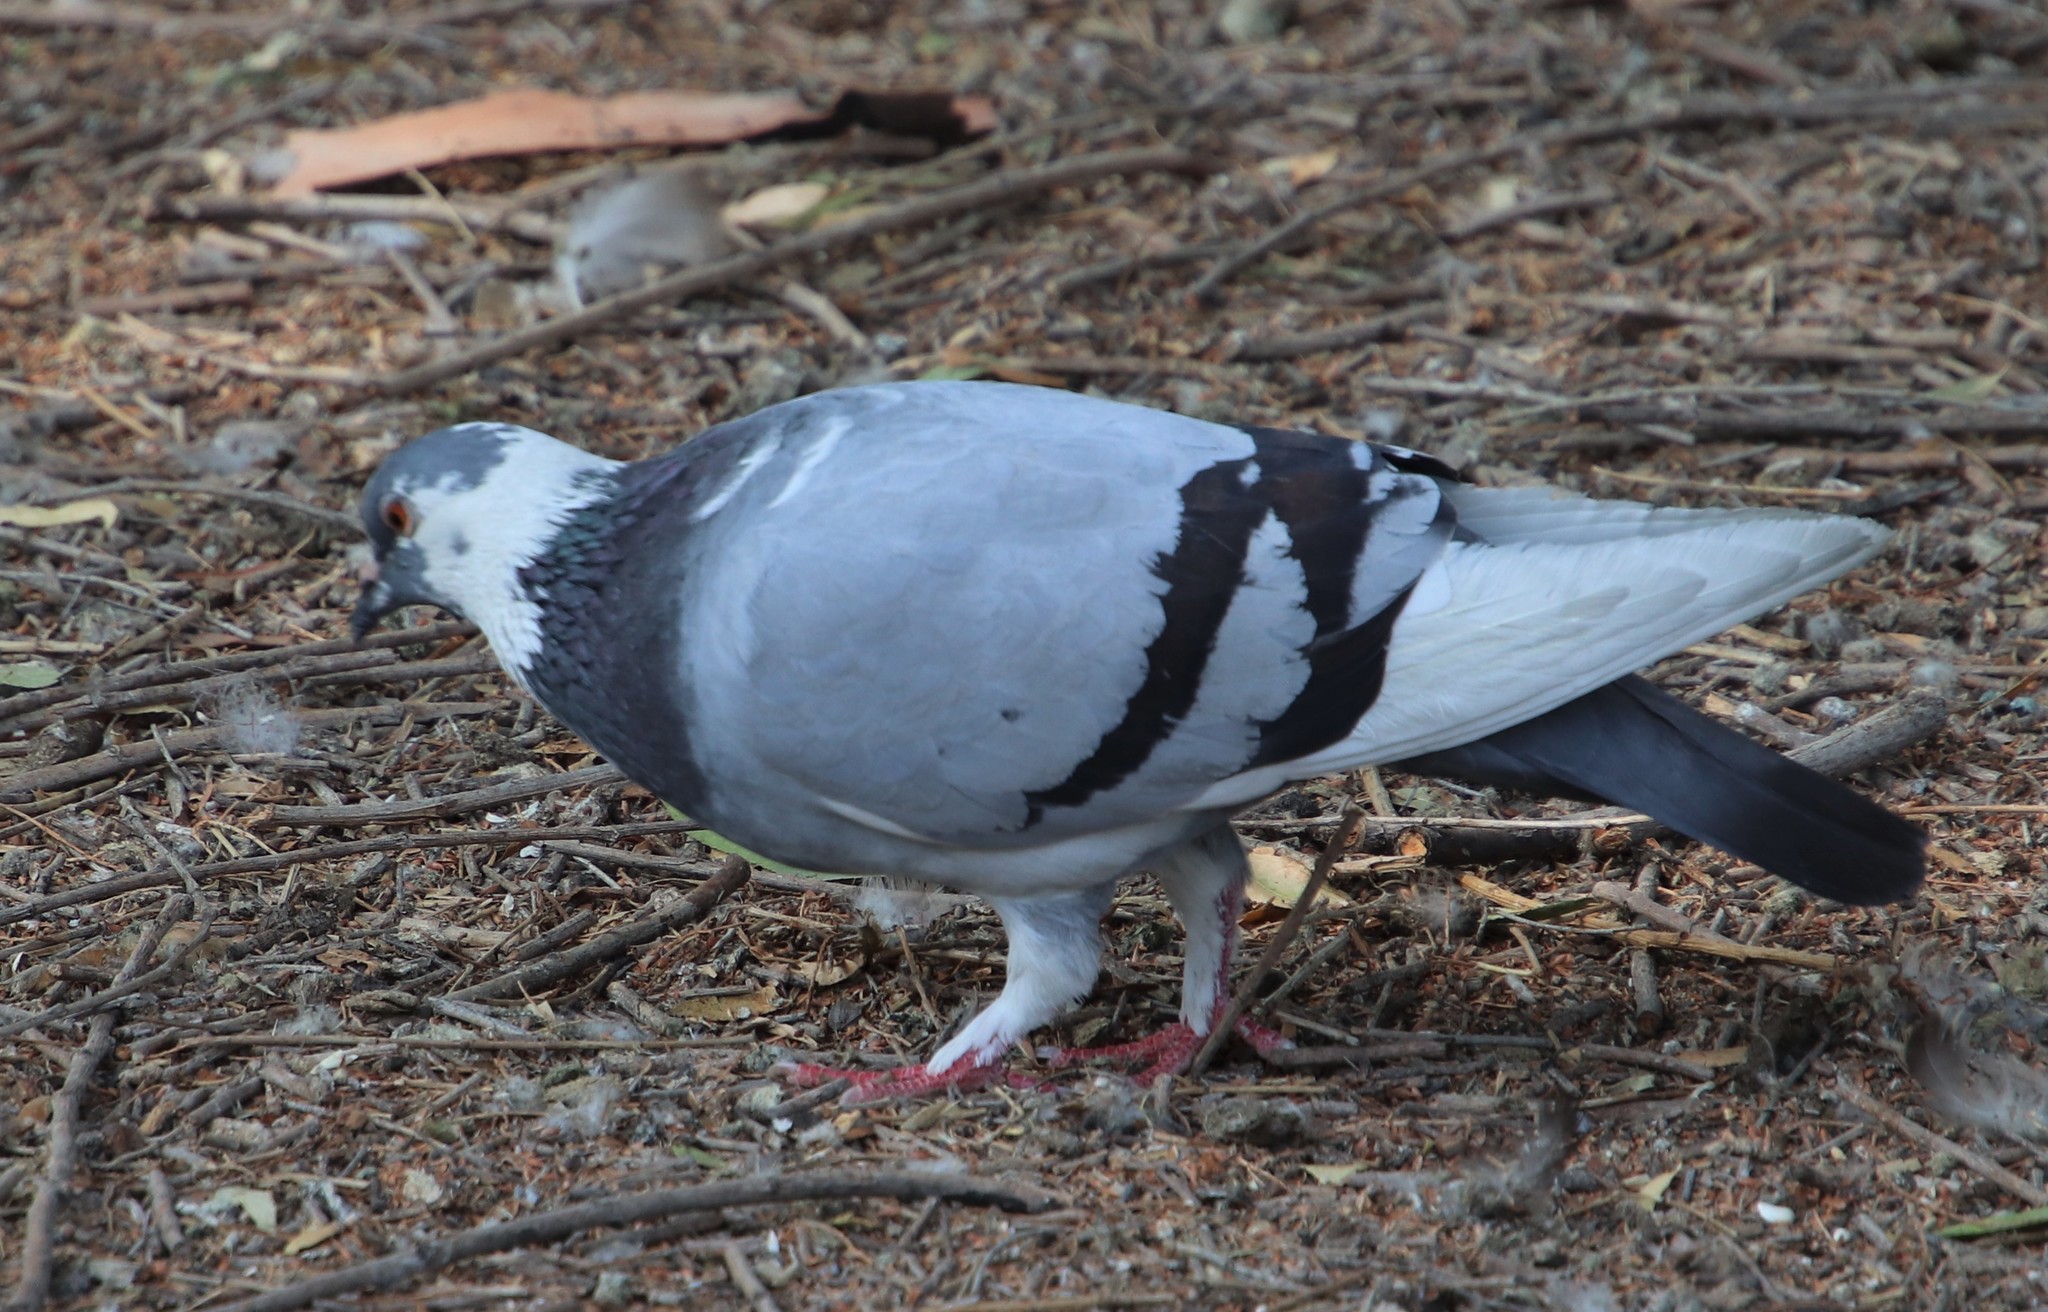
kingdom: Animalia
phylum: Chordata
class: Aves
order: Columbiformes
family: Columbidae
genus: Columba
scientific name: Columba livia
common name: Rock pigeon
